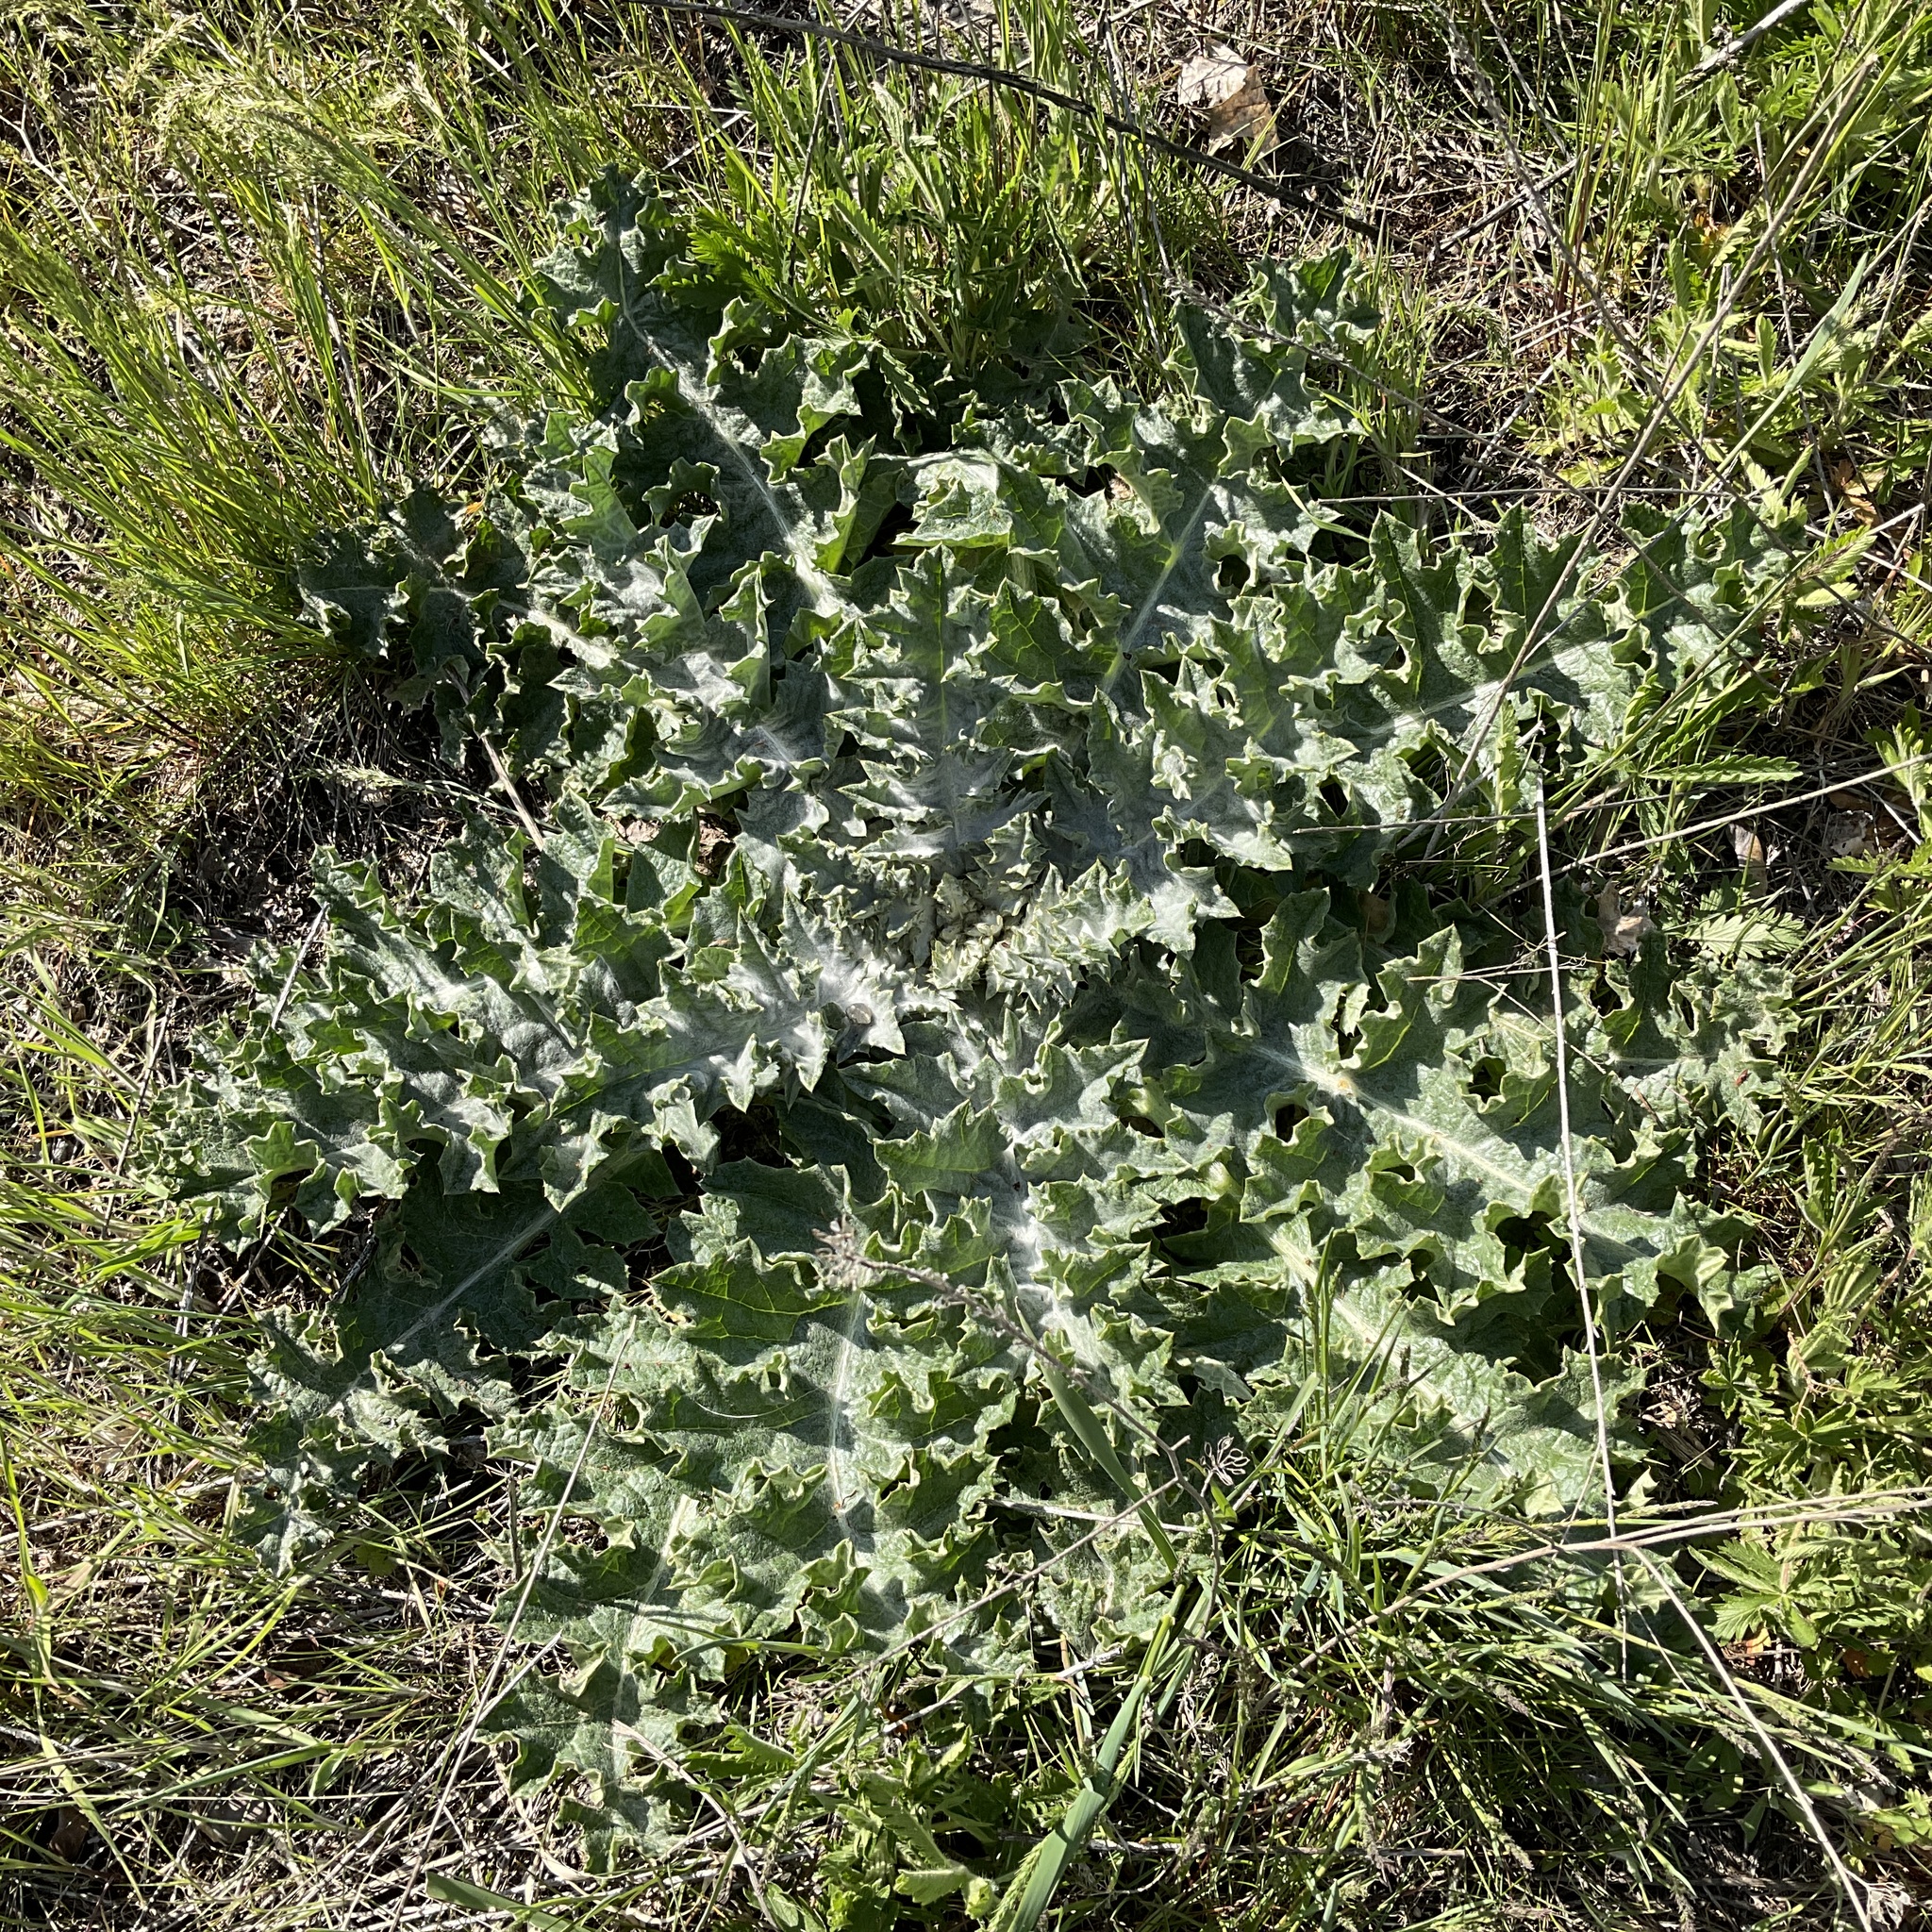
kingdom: Plantae
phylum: Tracheophyta
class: Magnoliopsida
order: Asterales
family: Asteraceae
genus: Onopordum
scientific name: Onopordum acanthium
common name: Scotch thistle
